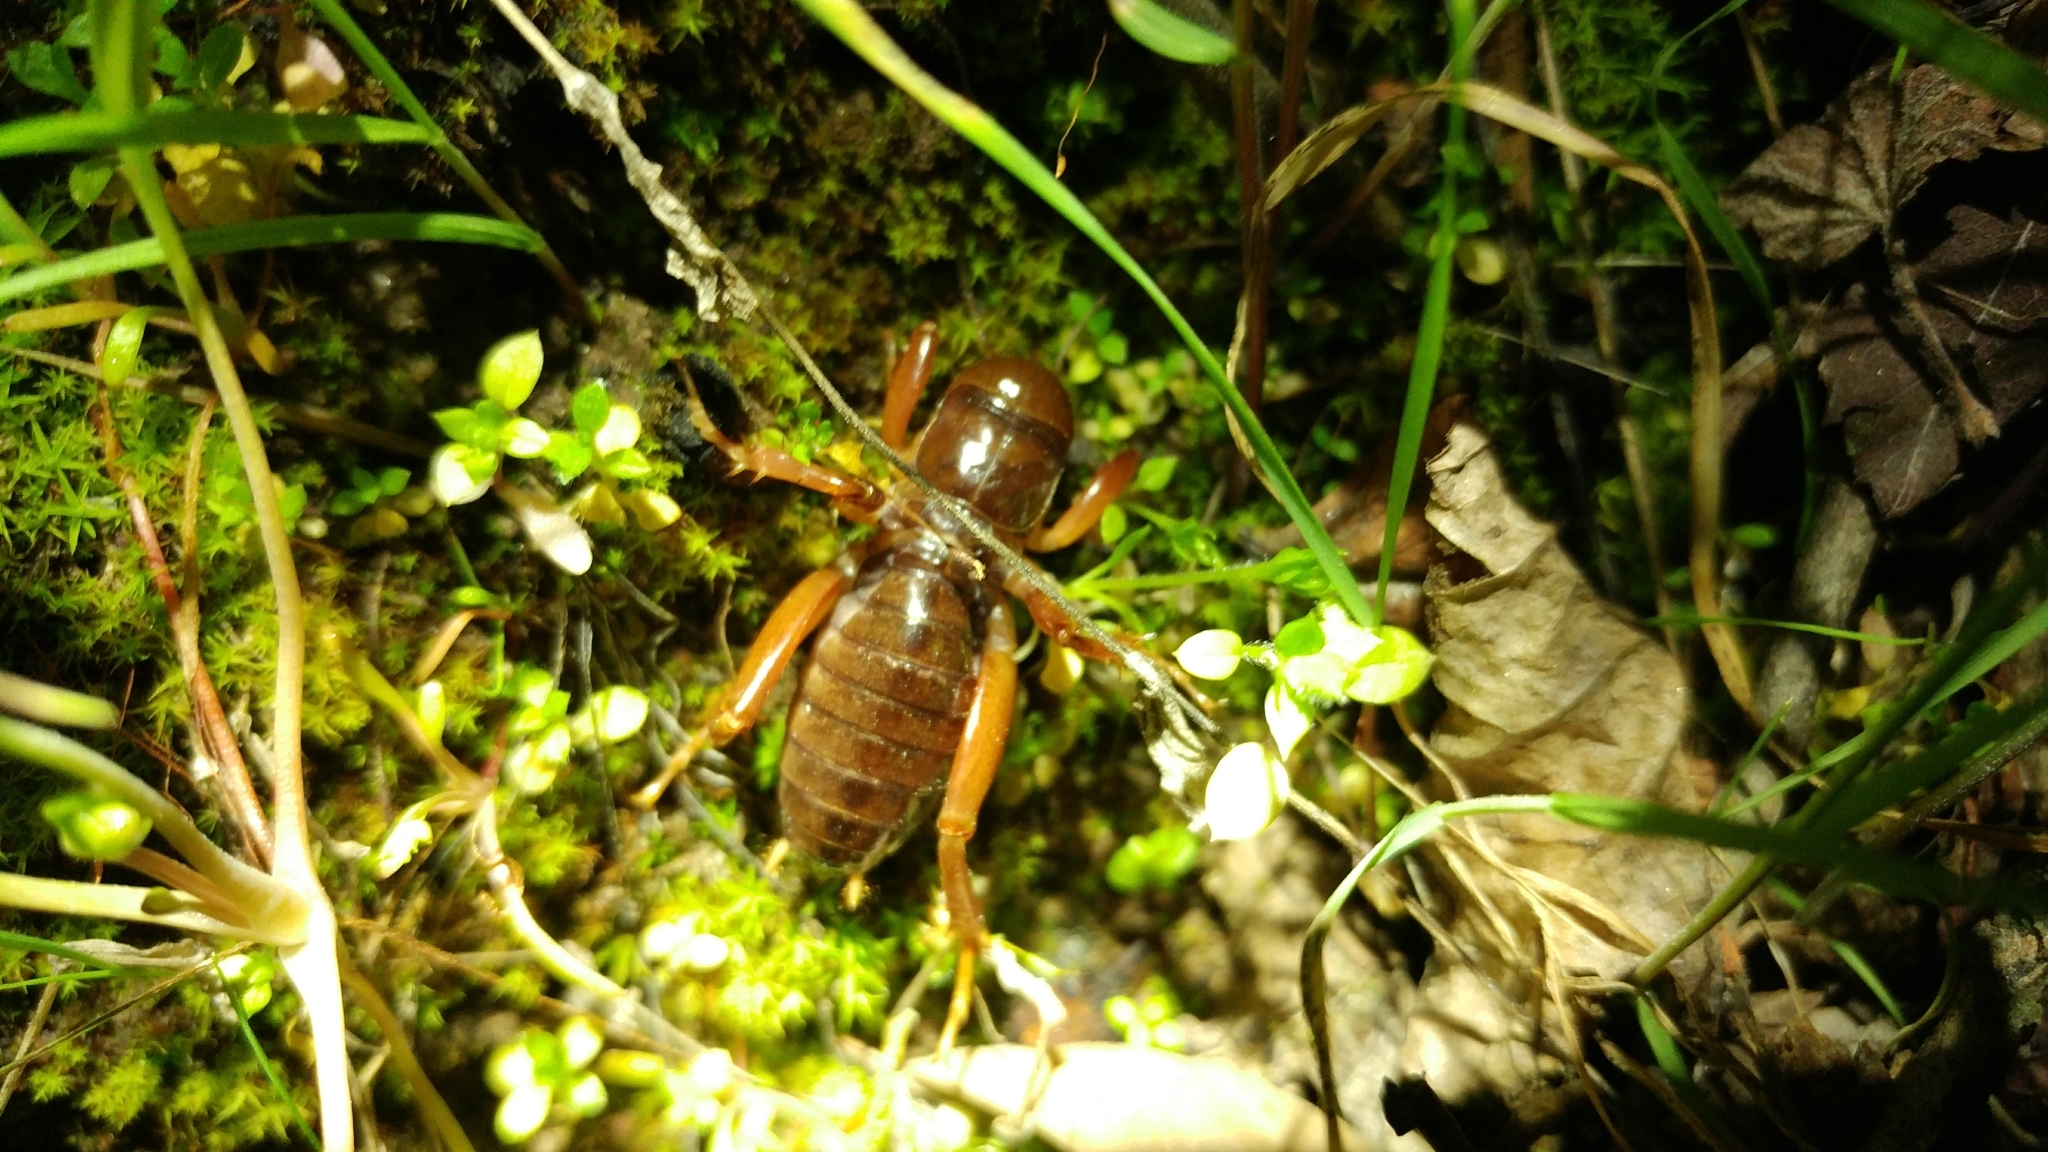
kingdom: Animalia
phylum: Arthropoda
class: Insecta
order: Orthoptera
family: Stenopelmatidae
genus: Ammopelmatus
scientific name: Ammopelmatus
